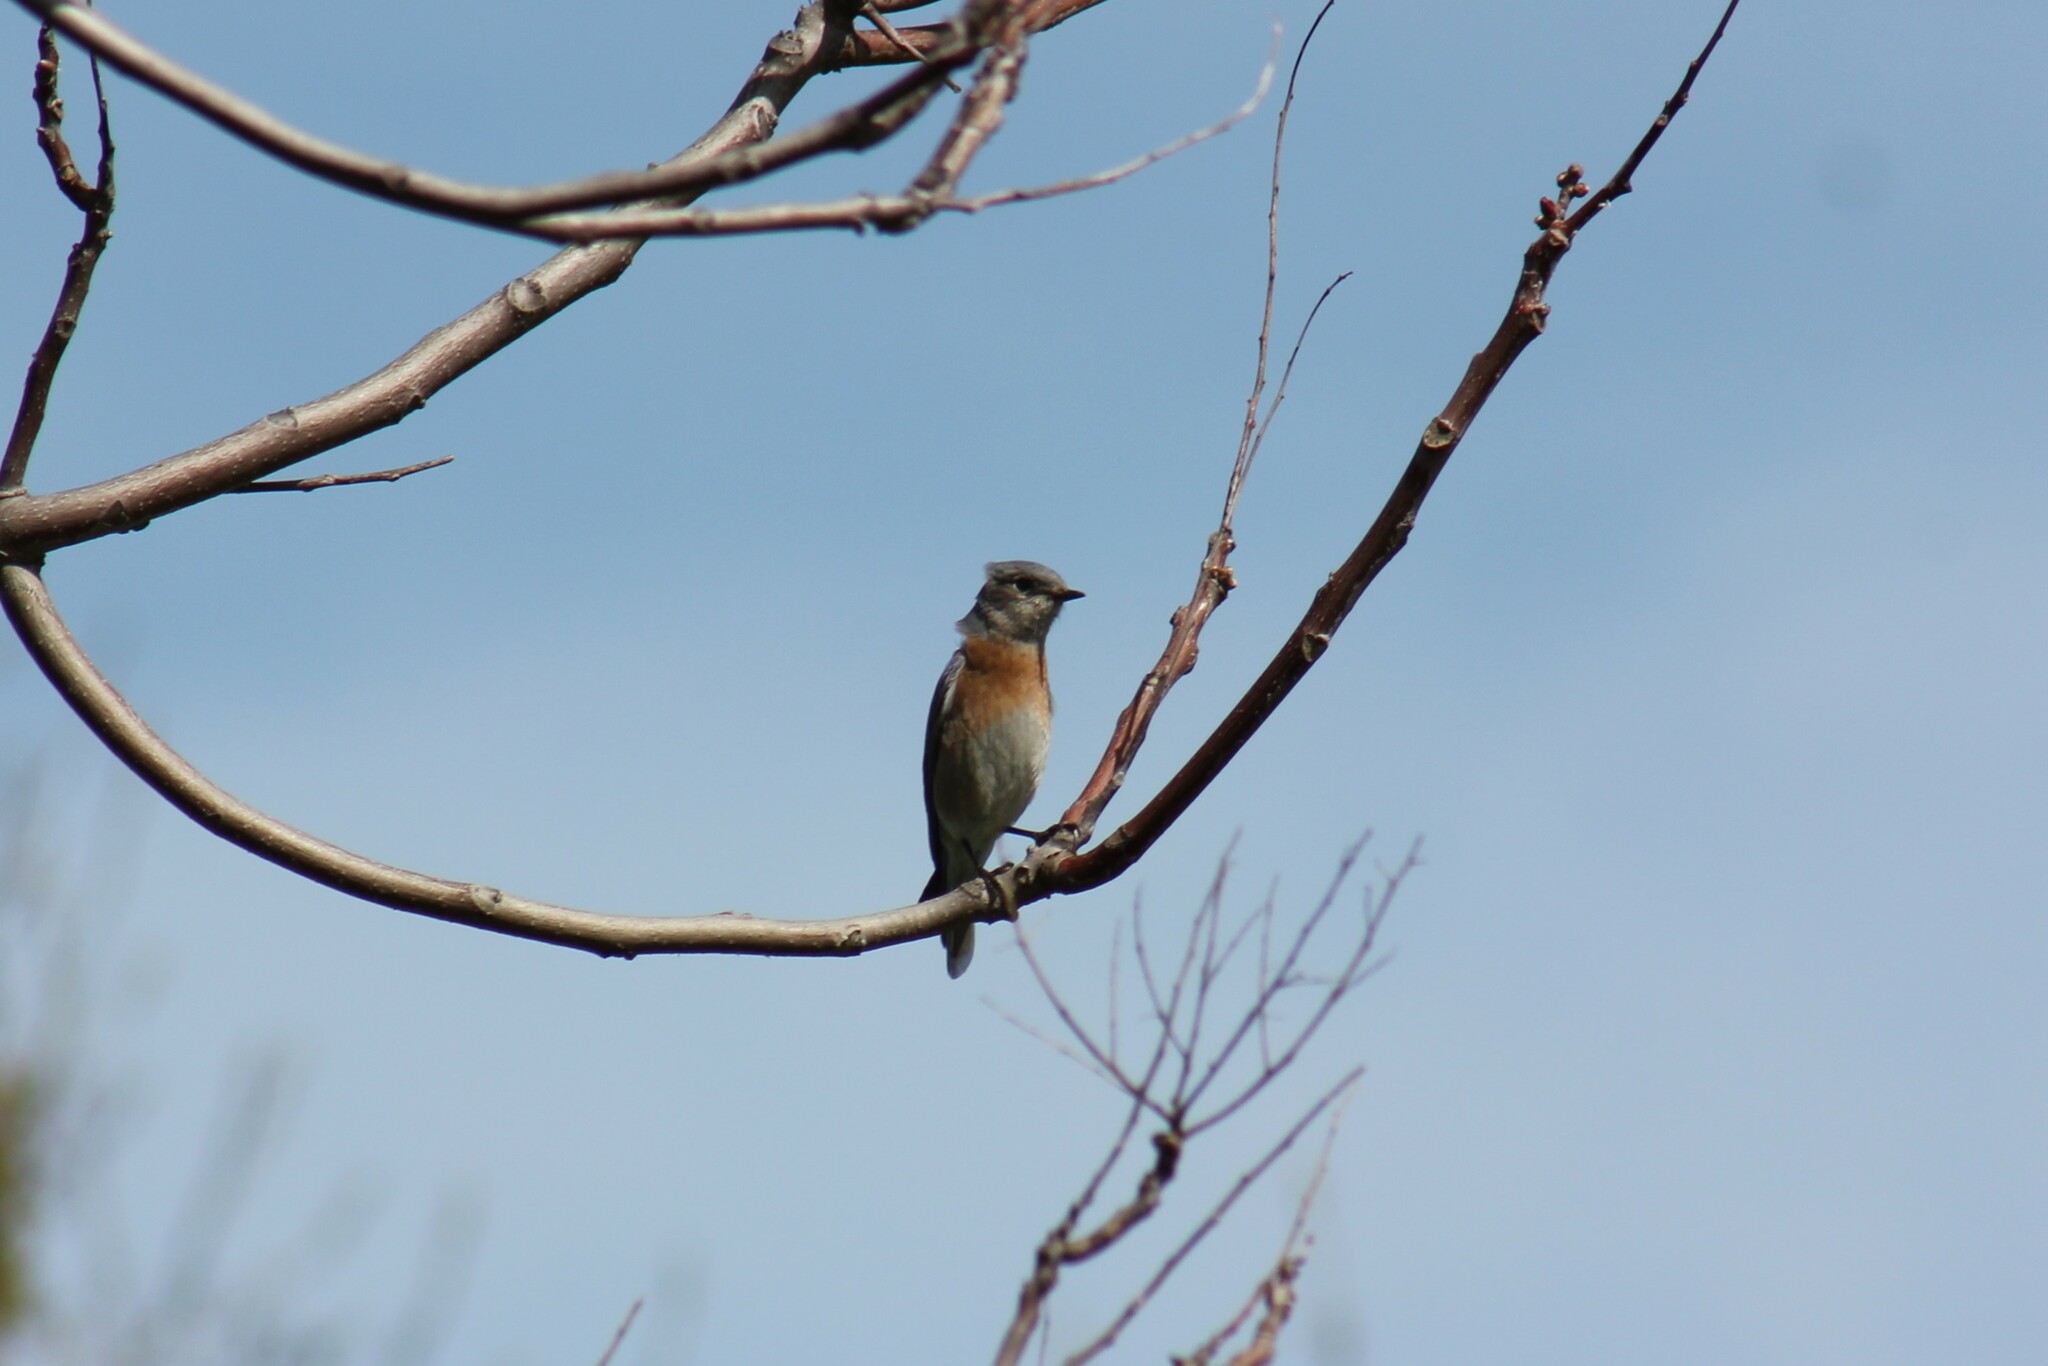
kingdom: Animalia
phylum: Chordata
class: Aves
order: Passeriformes
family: Turdidae
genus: Sialia
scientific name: Sialia mexicana
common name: Western bluebird
